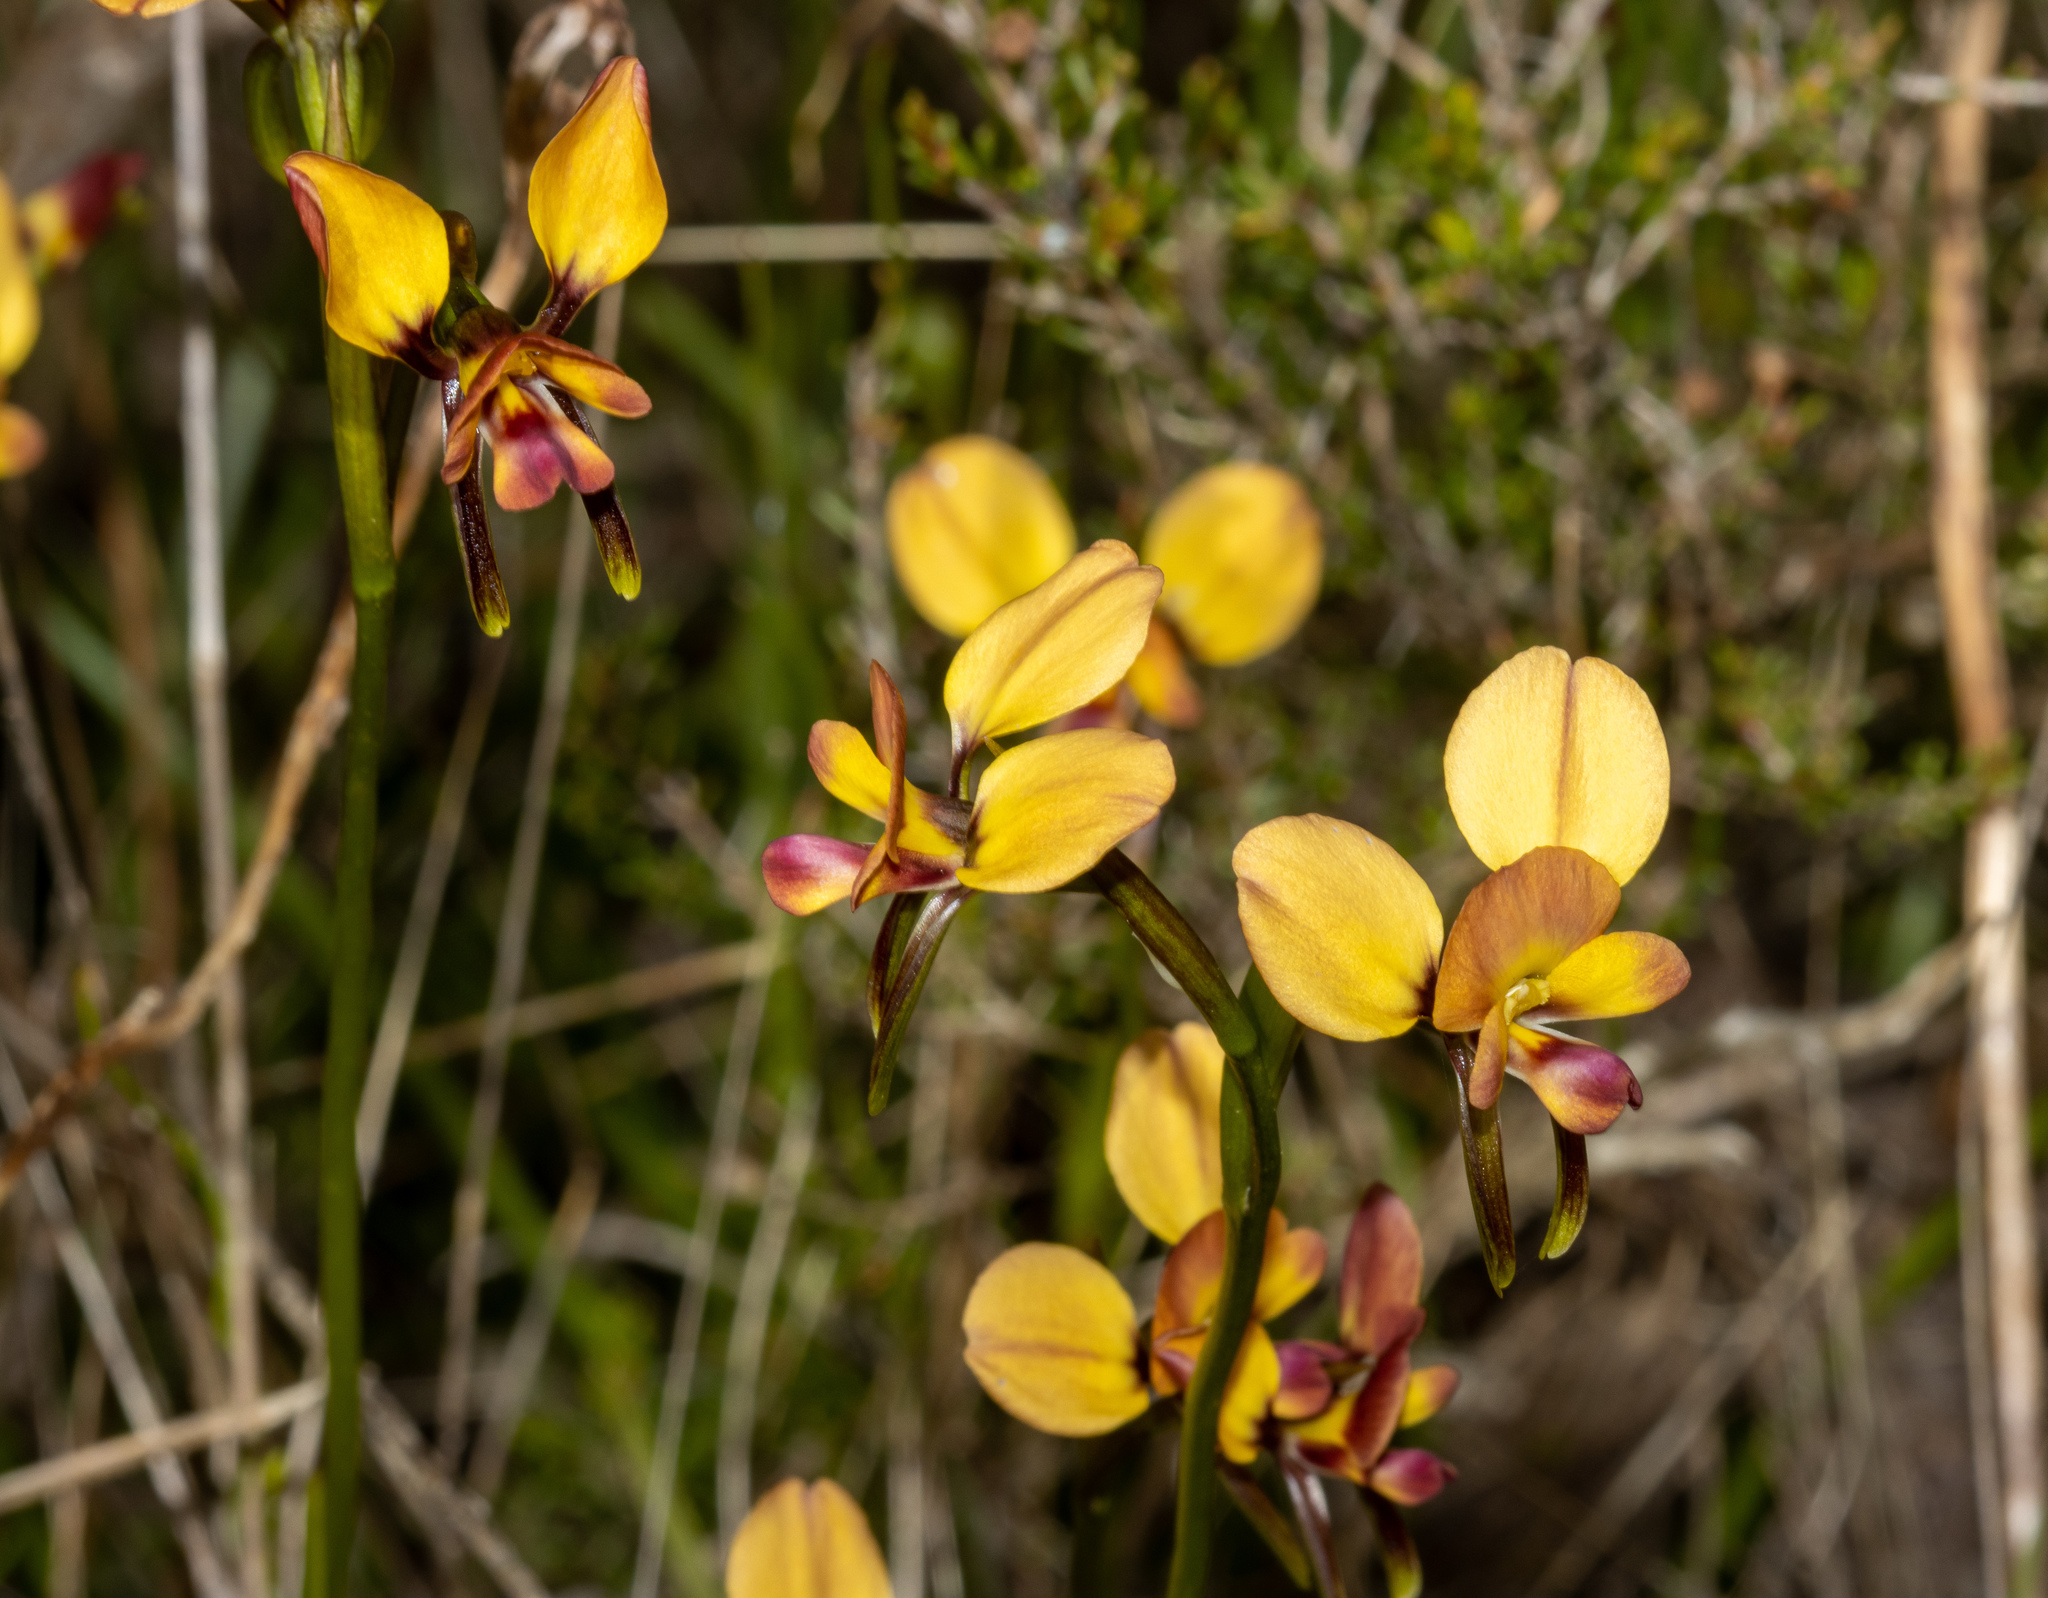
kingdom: Plantae
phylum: Tracheophyta
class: Liliopsida
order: Asparagales
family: Orchidaceae
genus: Diuris
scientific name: Diuris orientis
